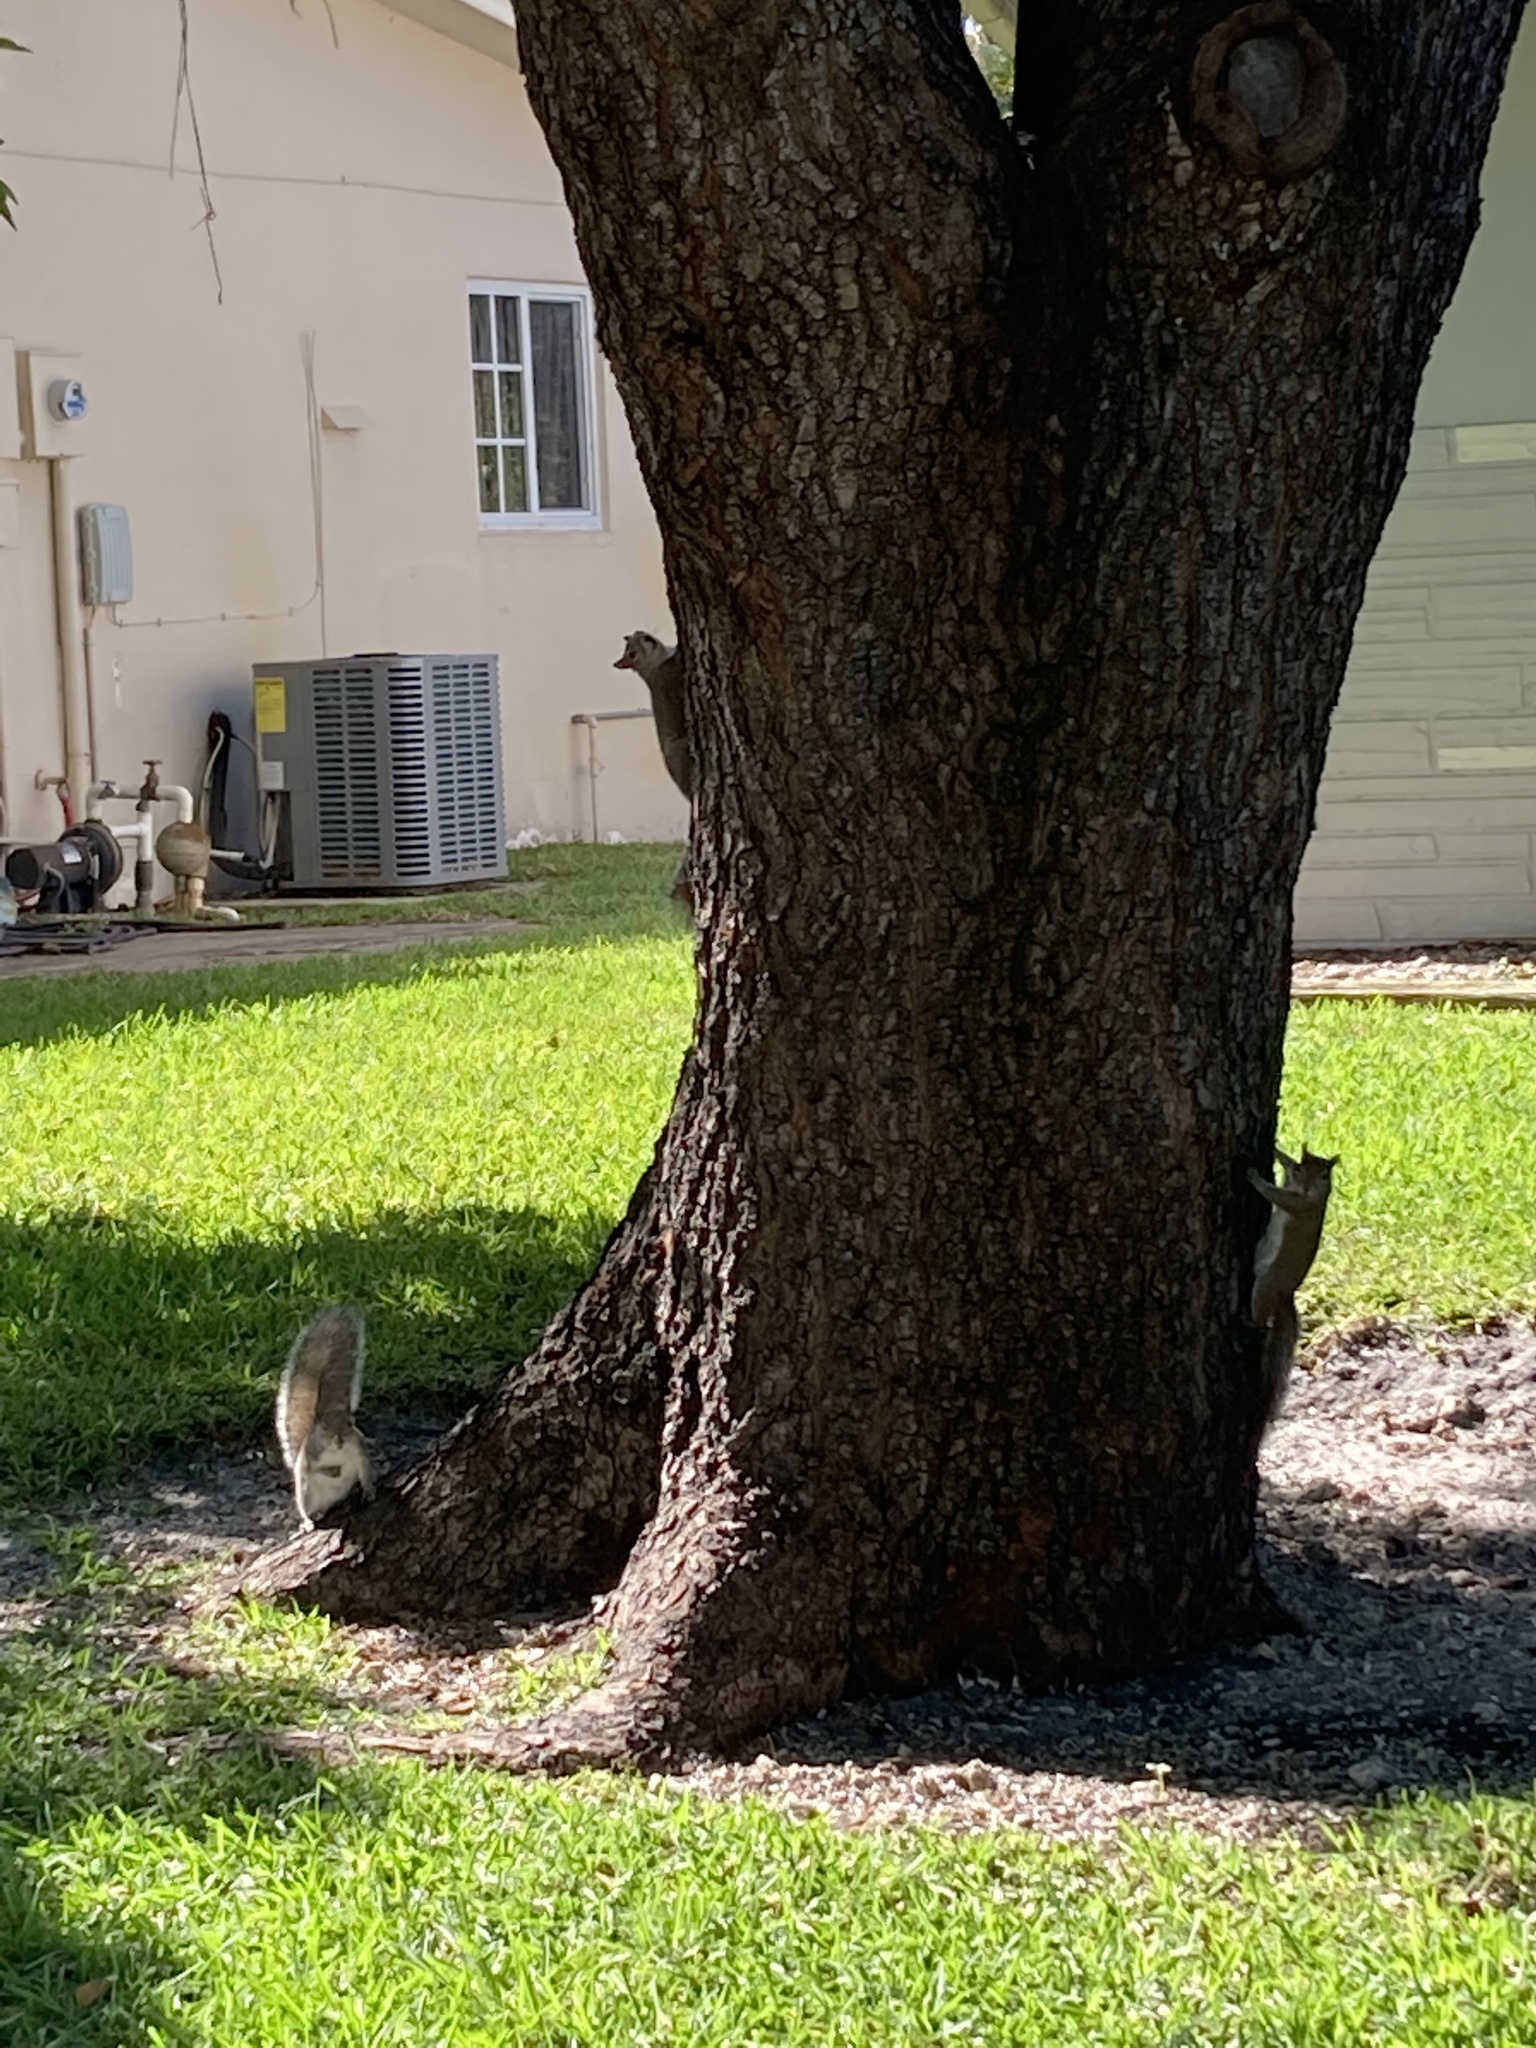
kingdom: Animalia
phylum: Chordata
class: Mammalia
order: Rodentia
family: Sciuridae
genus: Sciurus
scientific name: Sciurus carolinensis
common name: Eastern gray squirrel
